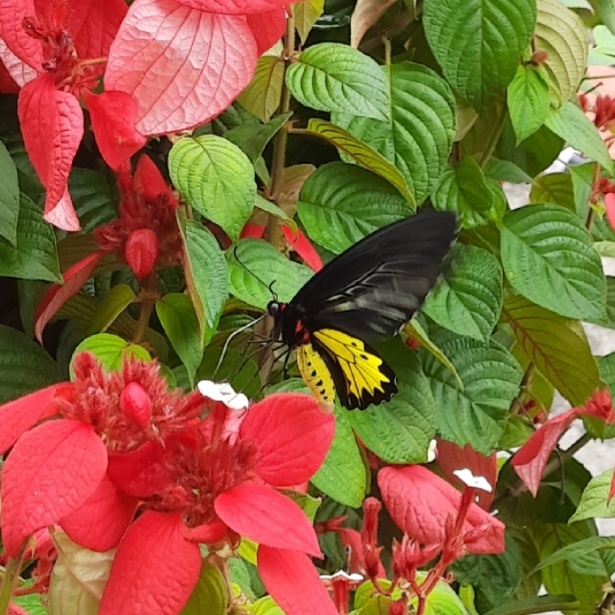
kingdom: Animalia
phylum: Arthropoda
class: Insecta
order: Lepidoptera
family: Papilionidae
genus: Troides
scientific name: Troides minos
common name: Malabar birdwing
